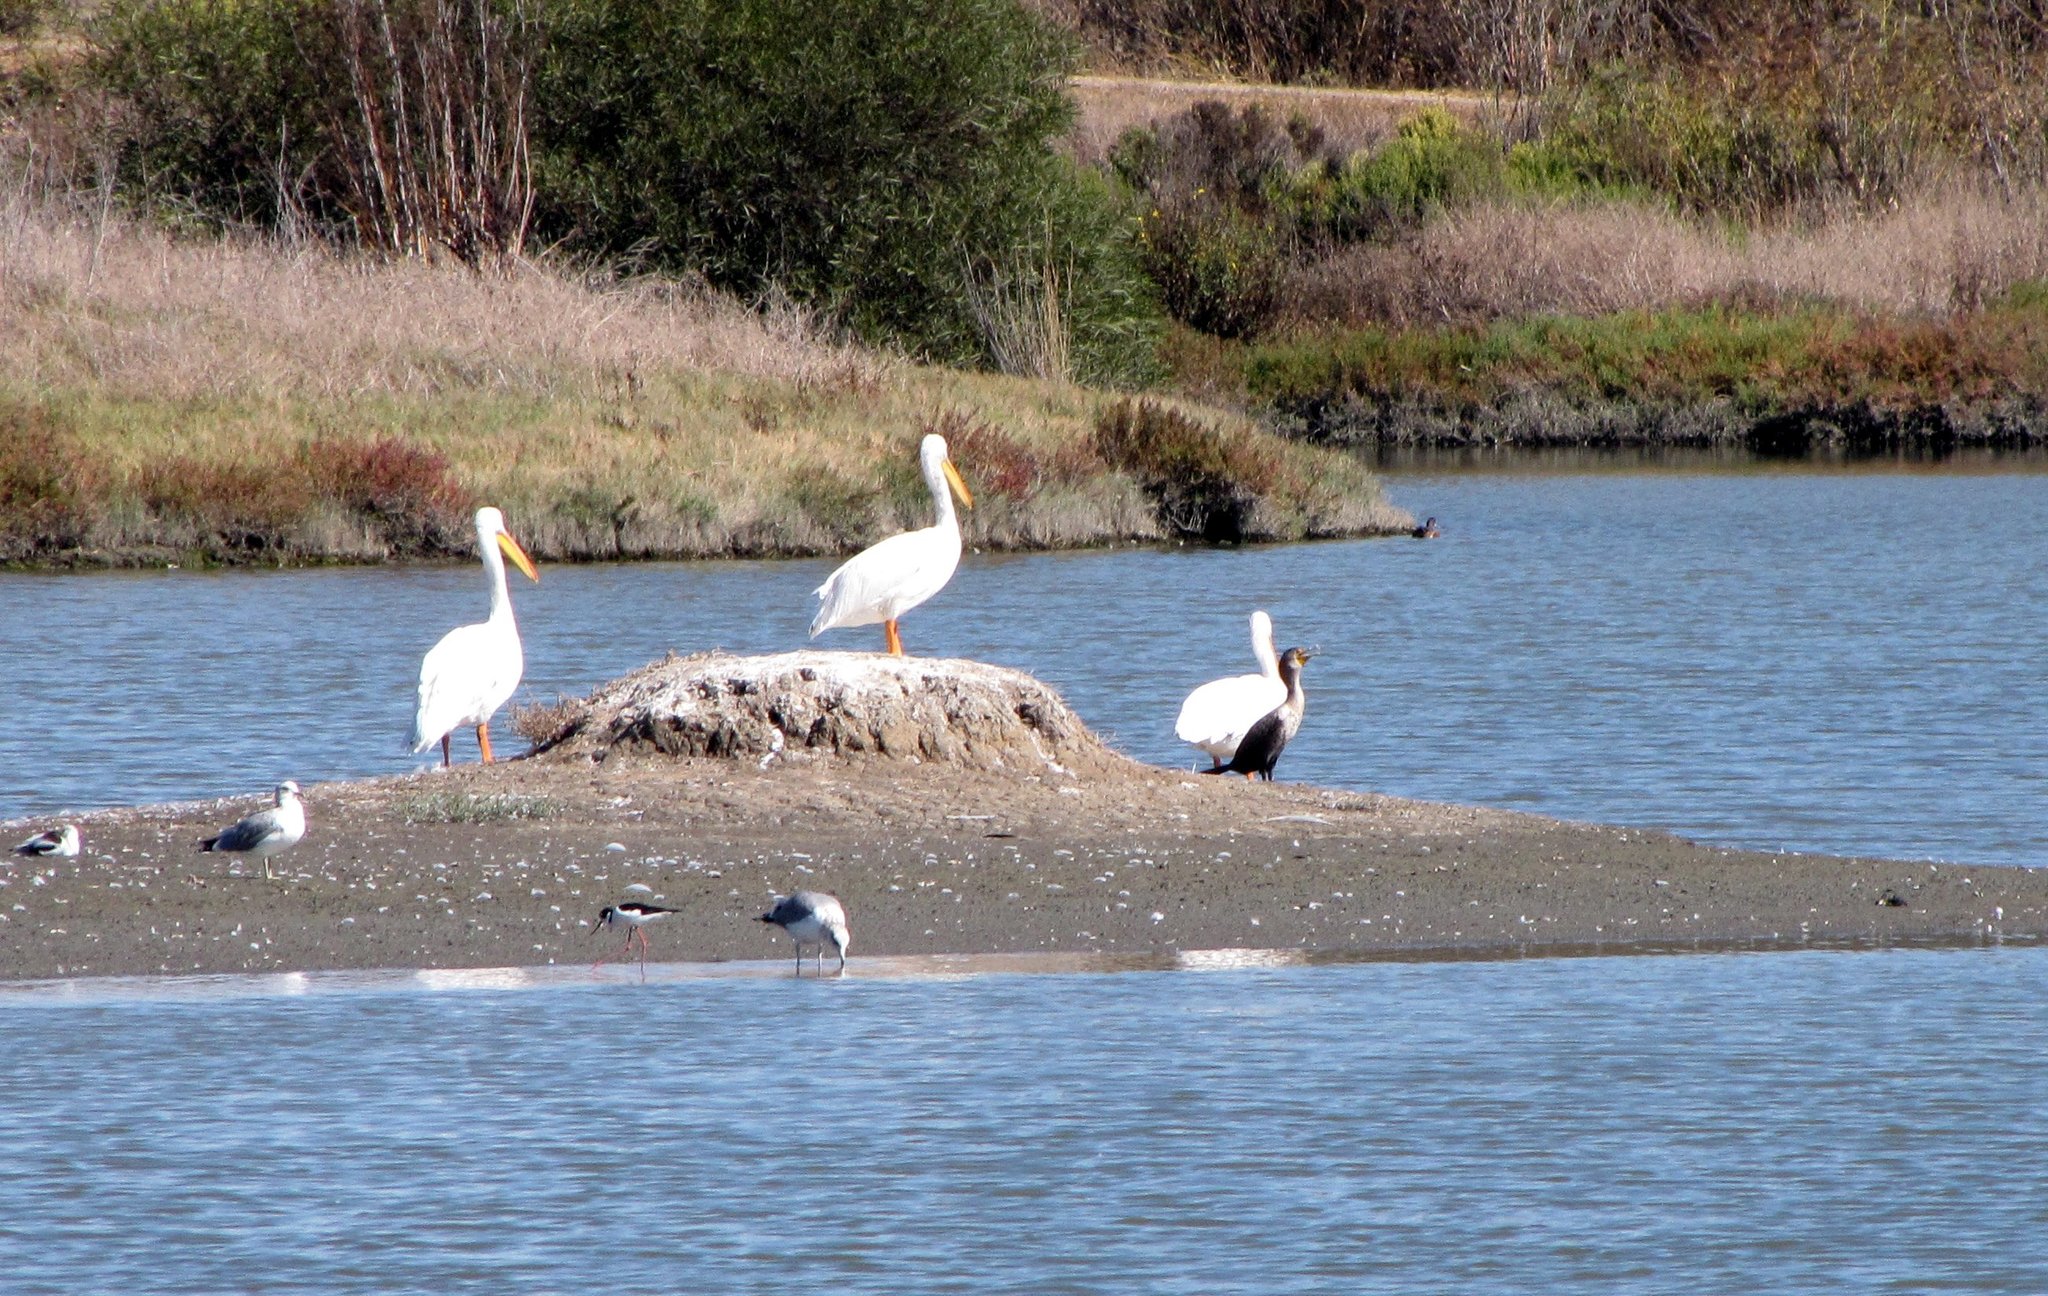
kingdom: Animalia
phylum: Chordata
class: Aves
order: Pelecaniformes
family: Pelecanidae
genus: Pelecanus
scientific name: Pelecanus erythrorhynchos
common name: American white pelican
